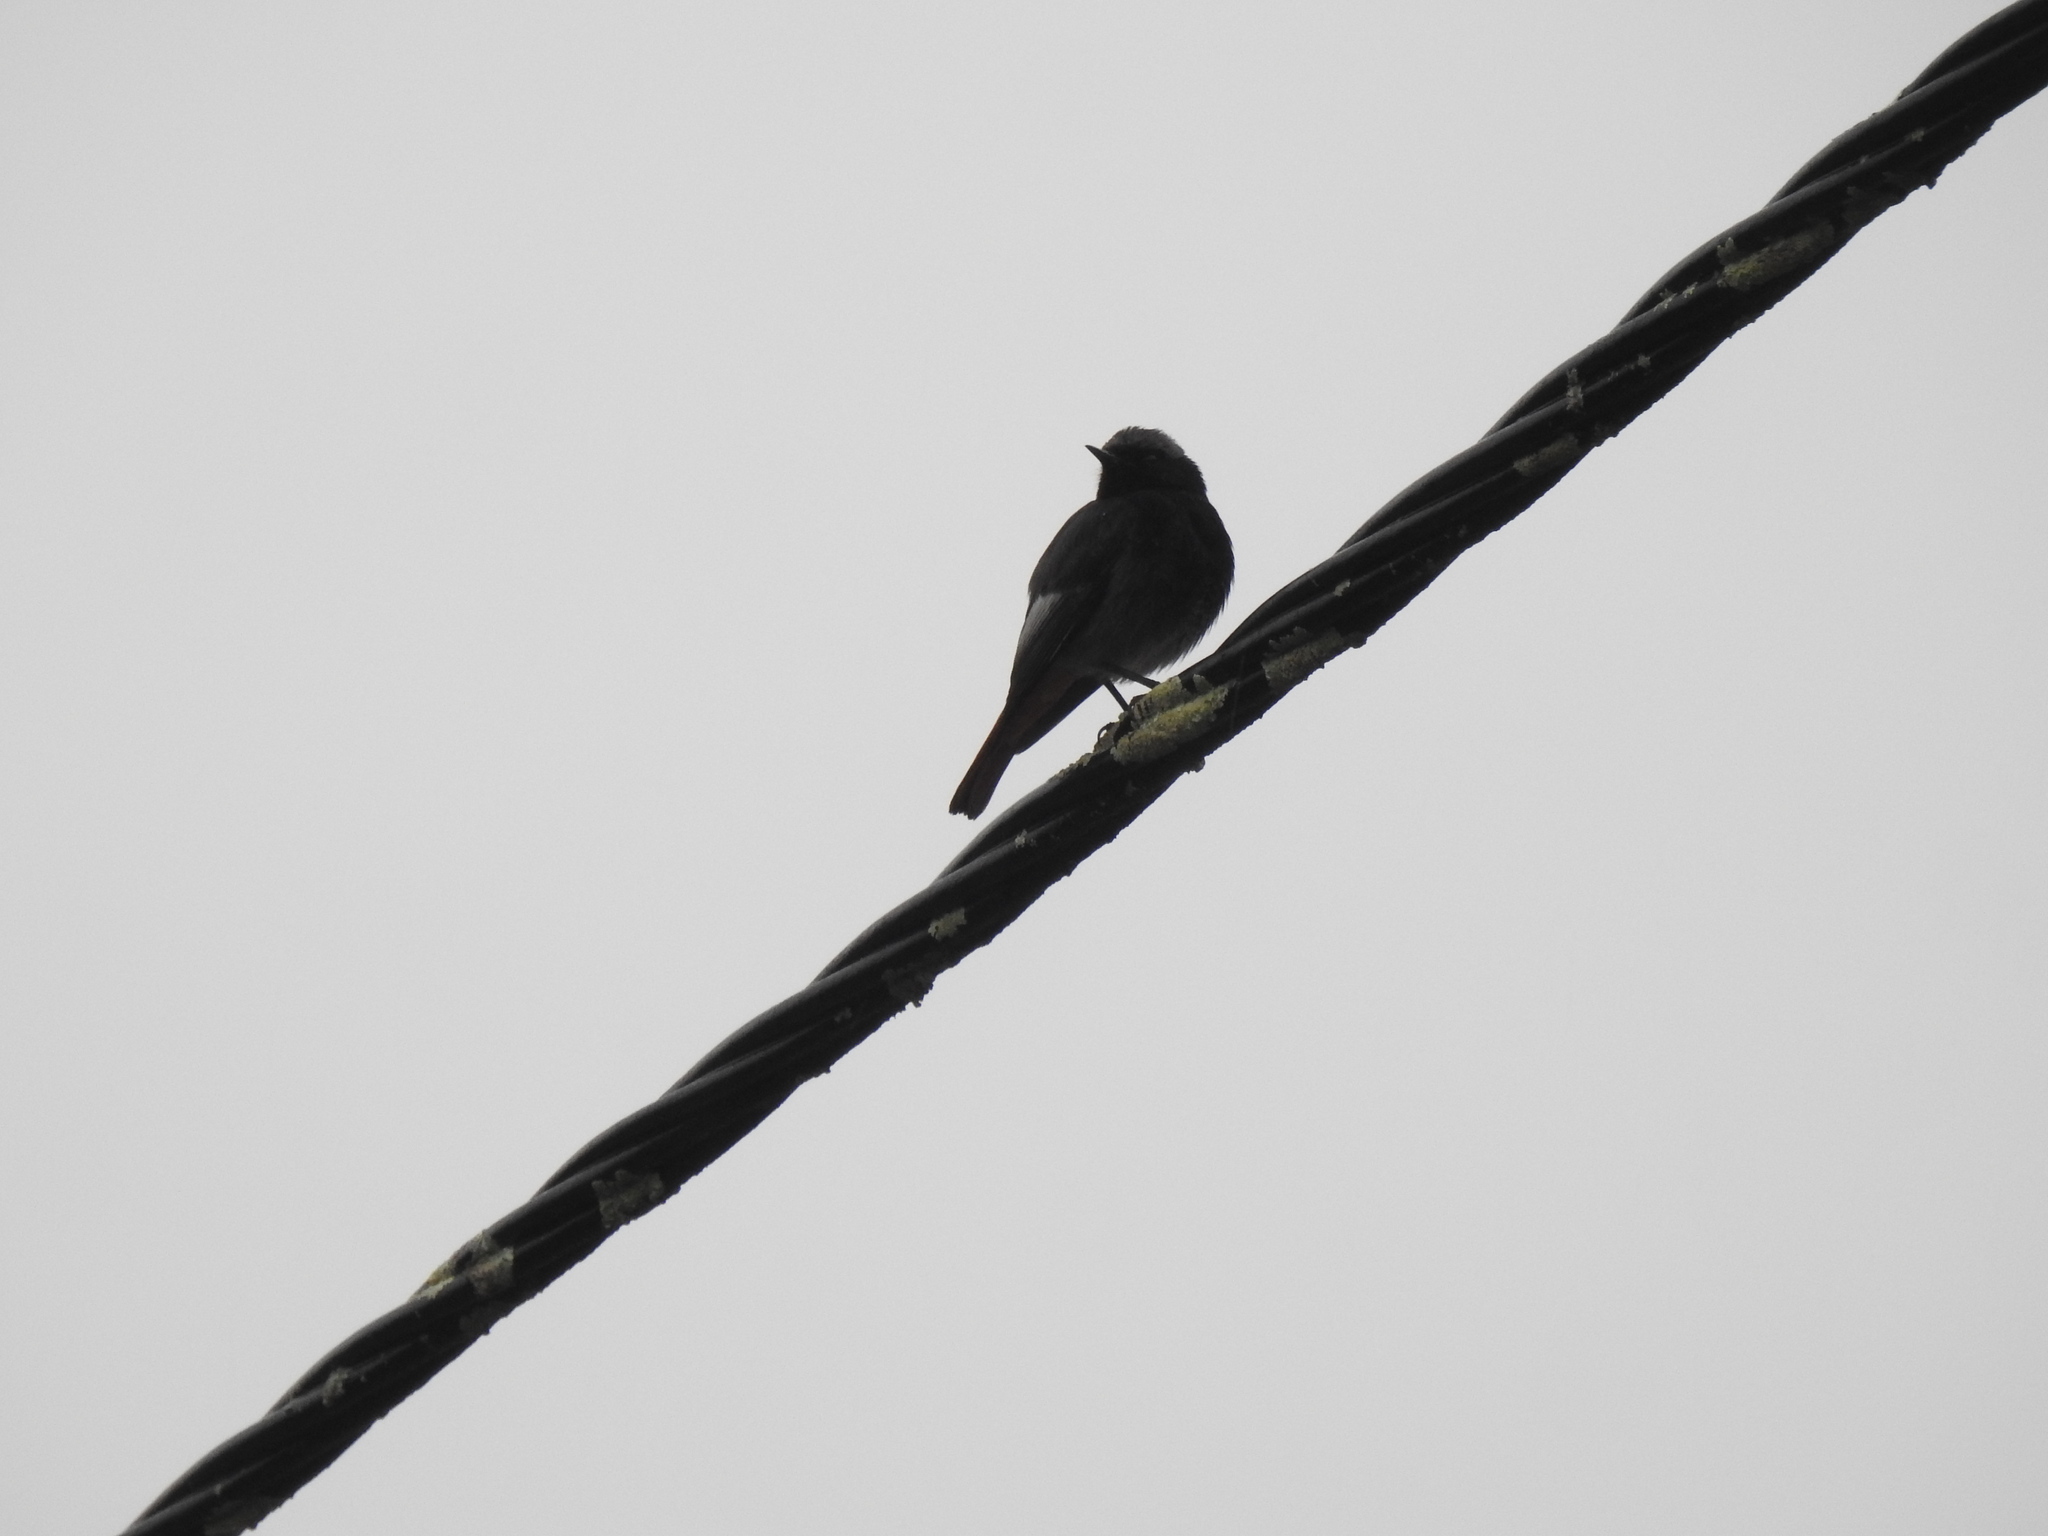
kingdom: Animalia
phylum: Chordata
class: Aves
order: Passeriformes
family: Muscicapidae
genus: Phoenicurus
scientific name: Phoenicurus ochruros
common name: Black redstart
